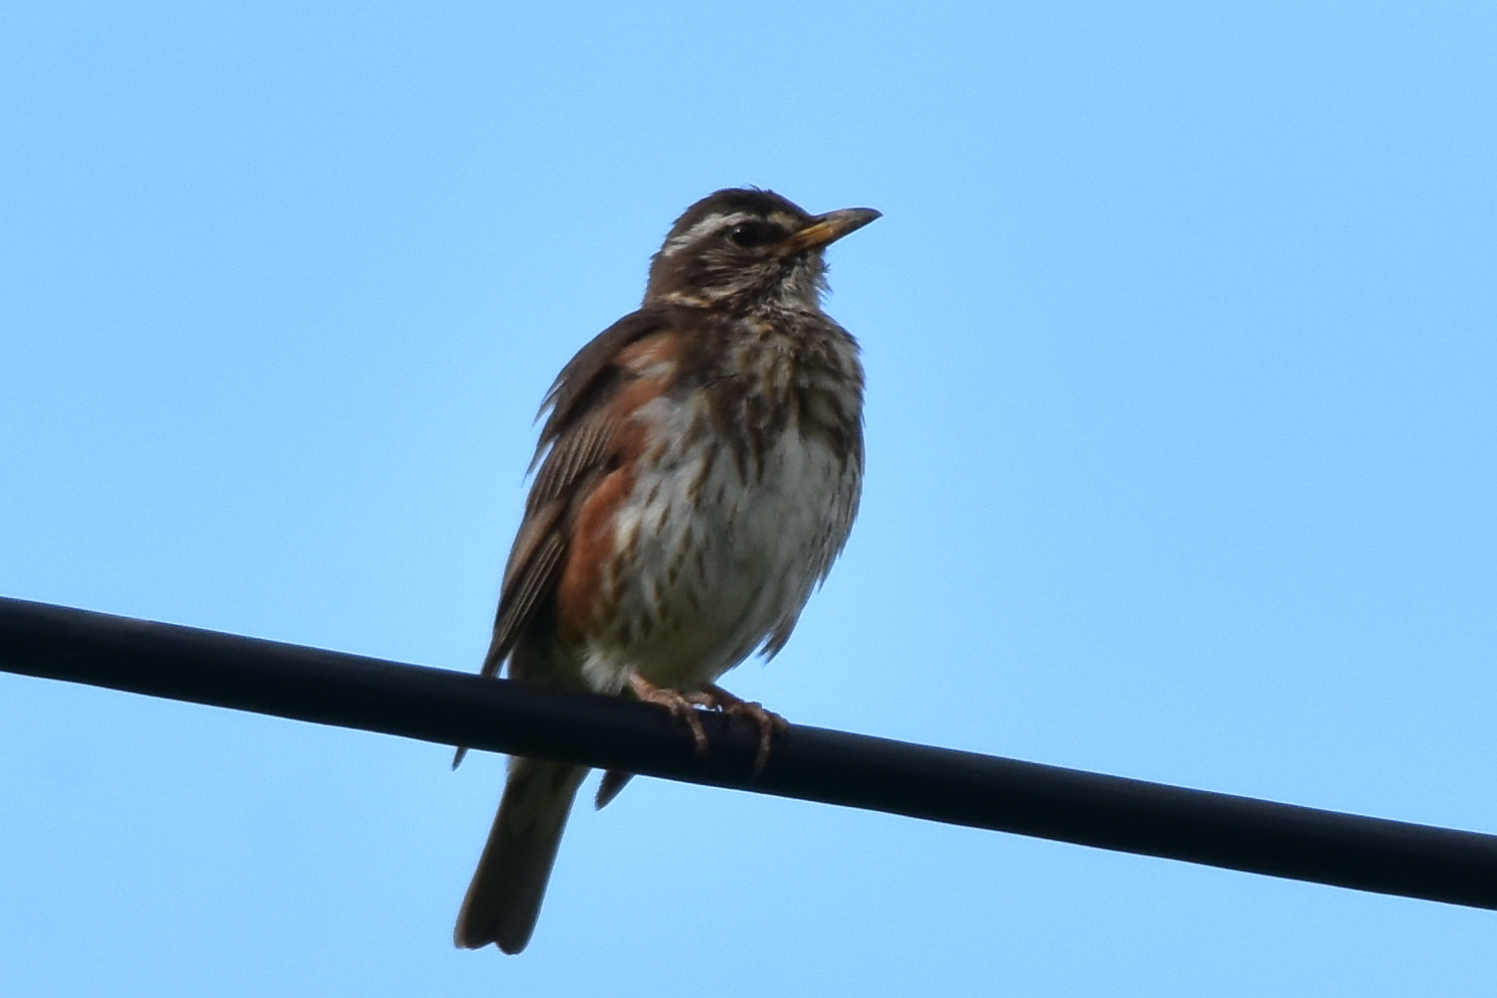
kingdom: Animalia
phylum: Chordata
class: Aves
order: Passeriformes
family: Turdidae
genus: Turdus
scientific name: Turdus iliacus
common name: Redwing
